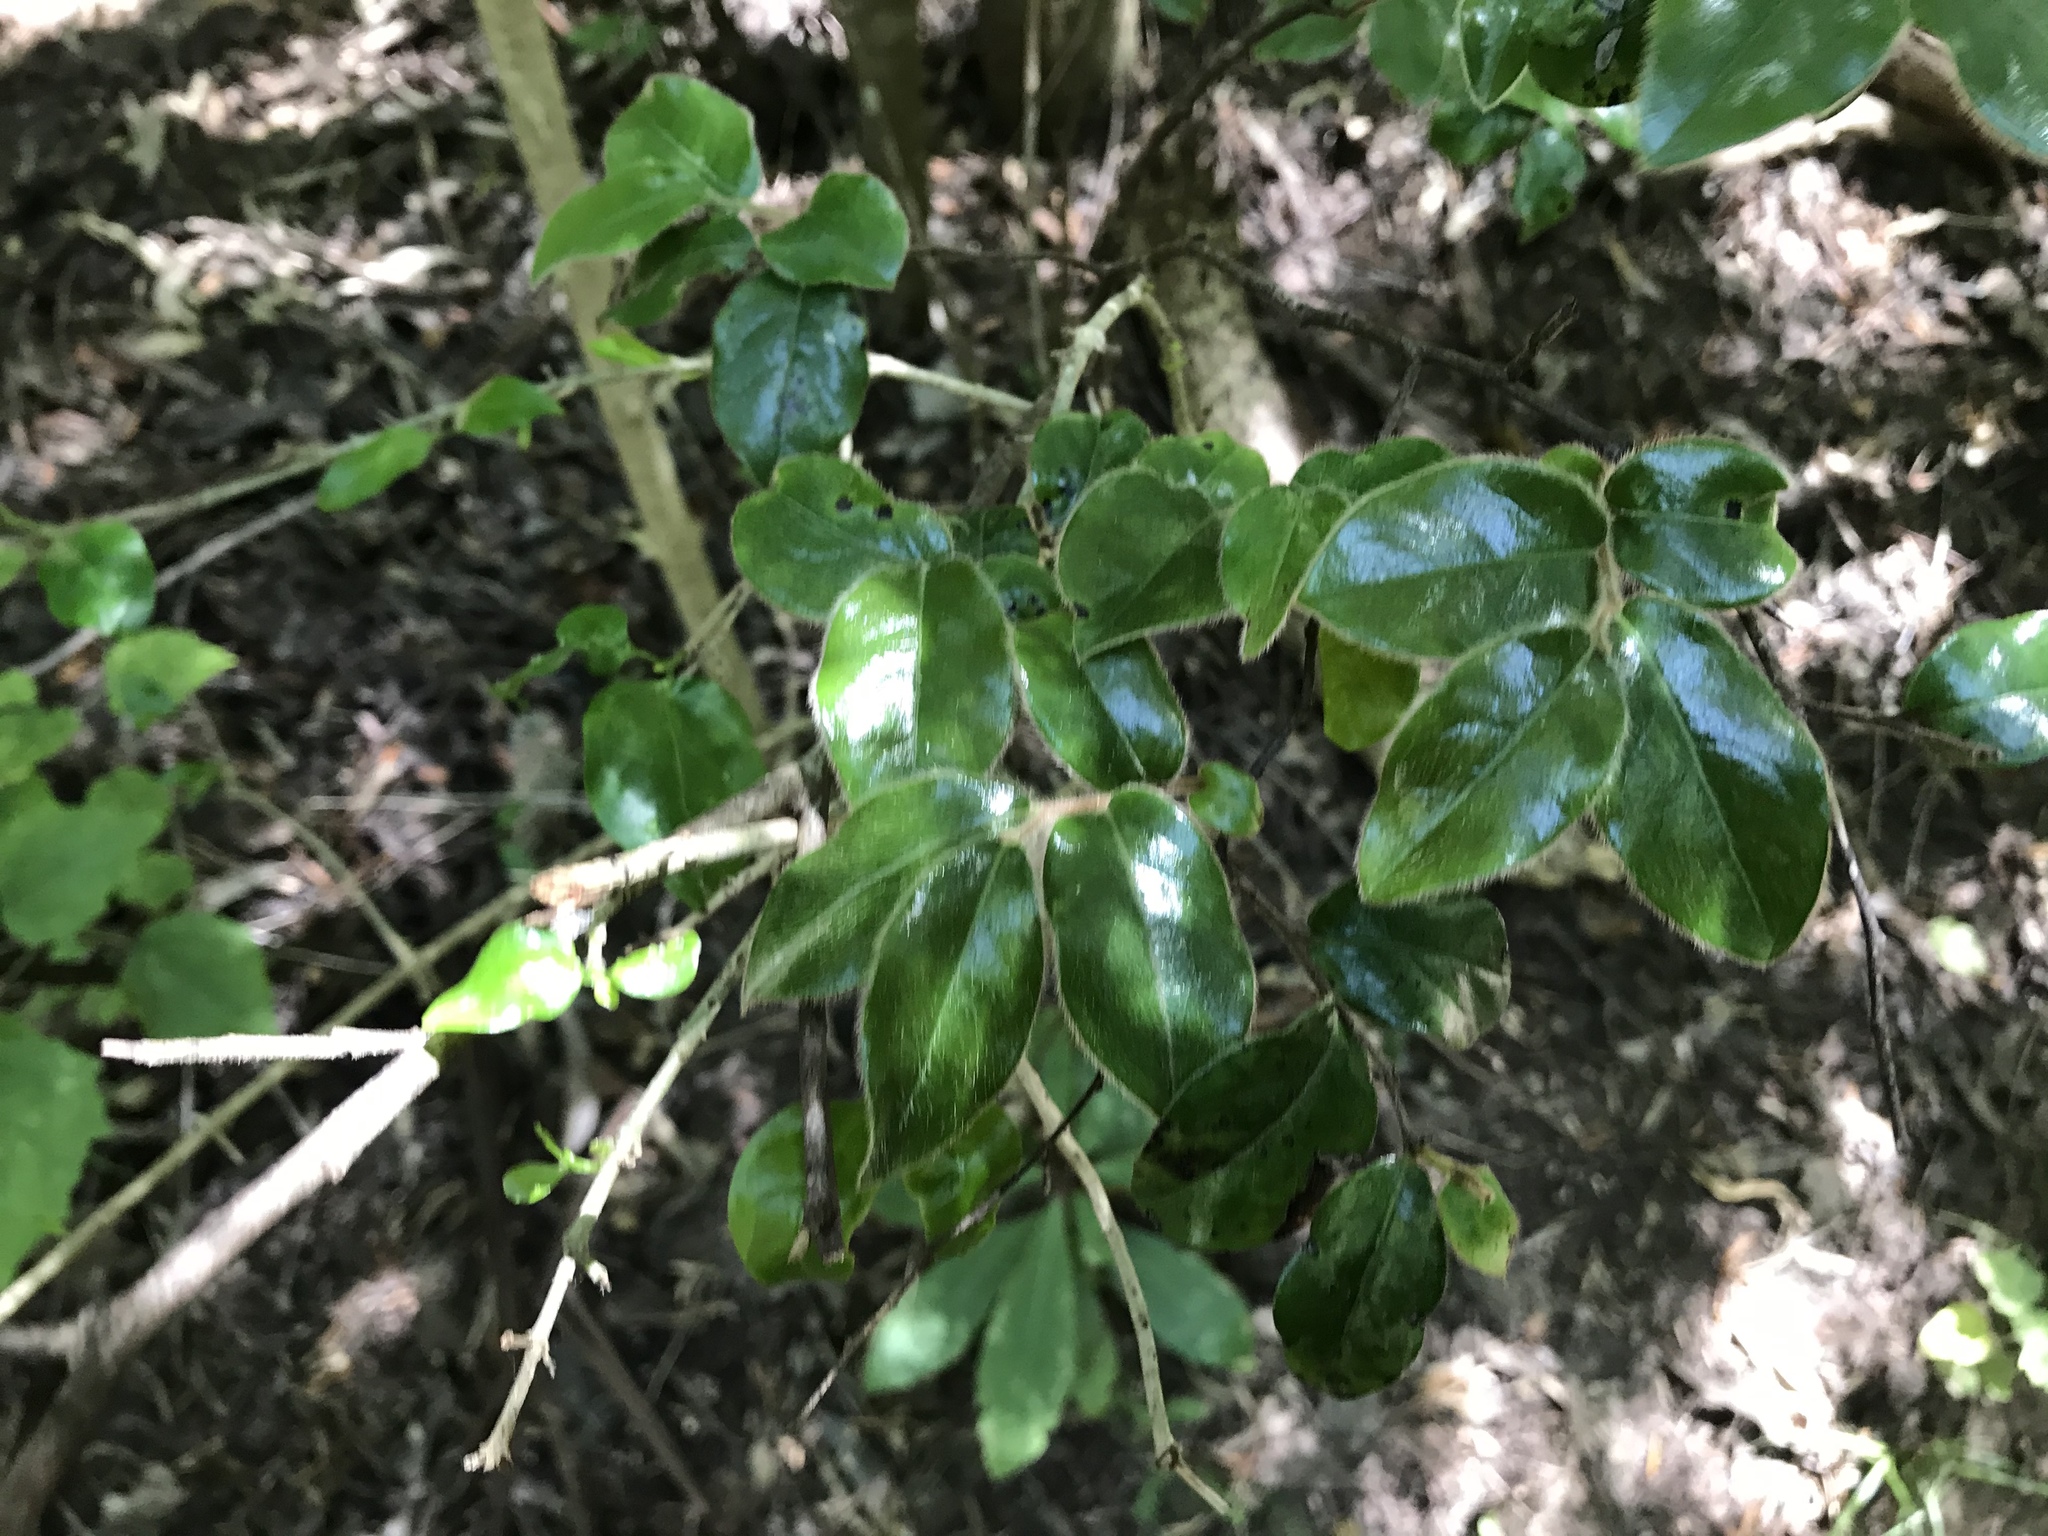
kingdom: Plantae
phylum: Tracheophyta
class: Magnoliopsida
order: Ericales
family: Ebenaceae
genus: Diospyros
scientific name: Diospyros whyteana
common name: Bladder-nut
